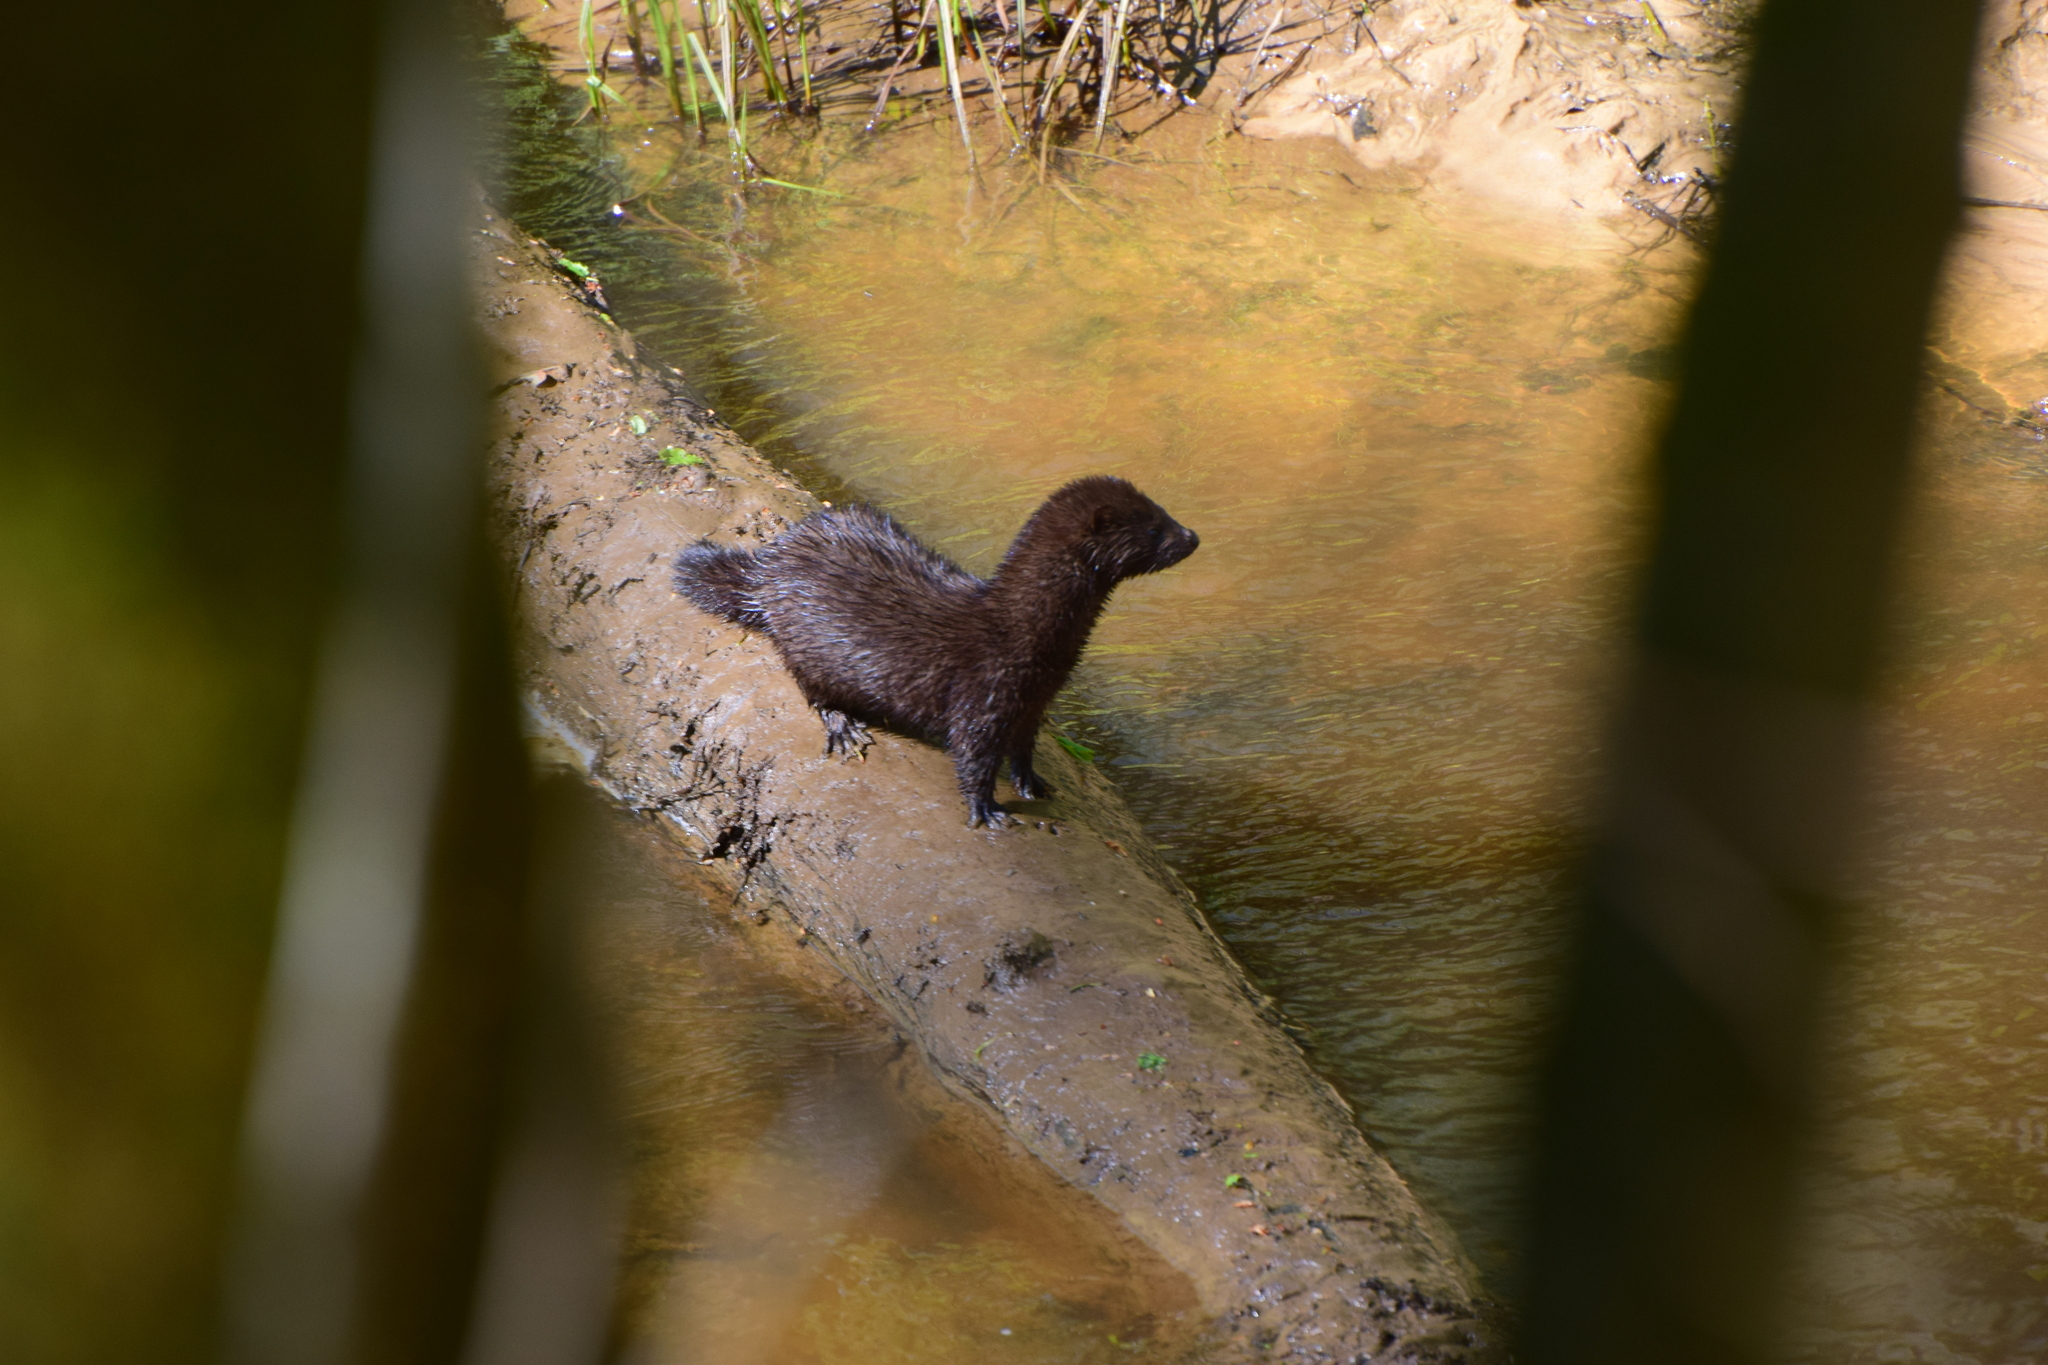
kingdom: Animalia
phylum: Chordata
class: Mammalia
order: Carnivora
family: Mustelidae
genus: Mustela
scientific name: Mustela
